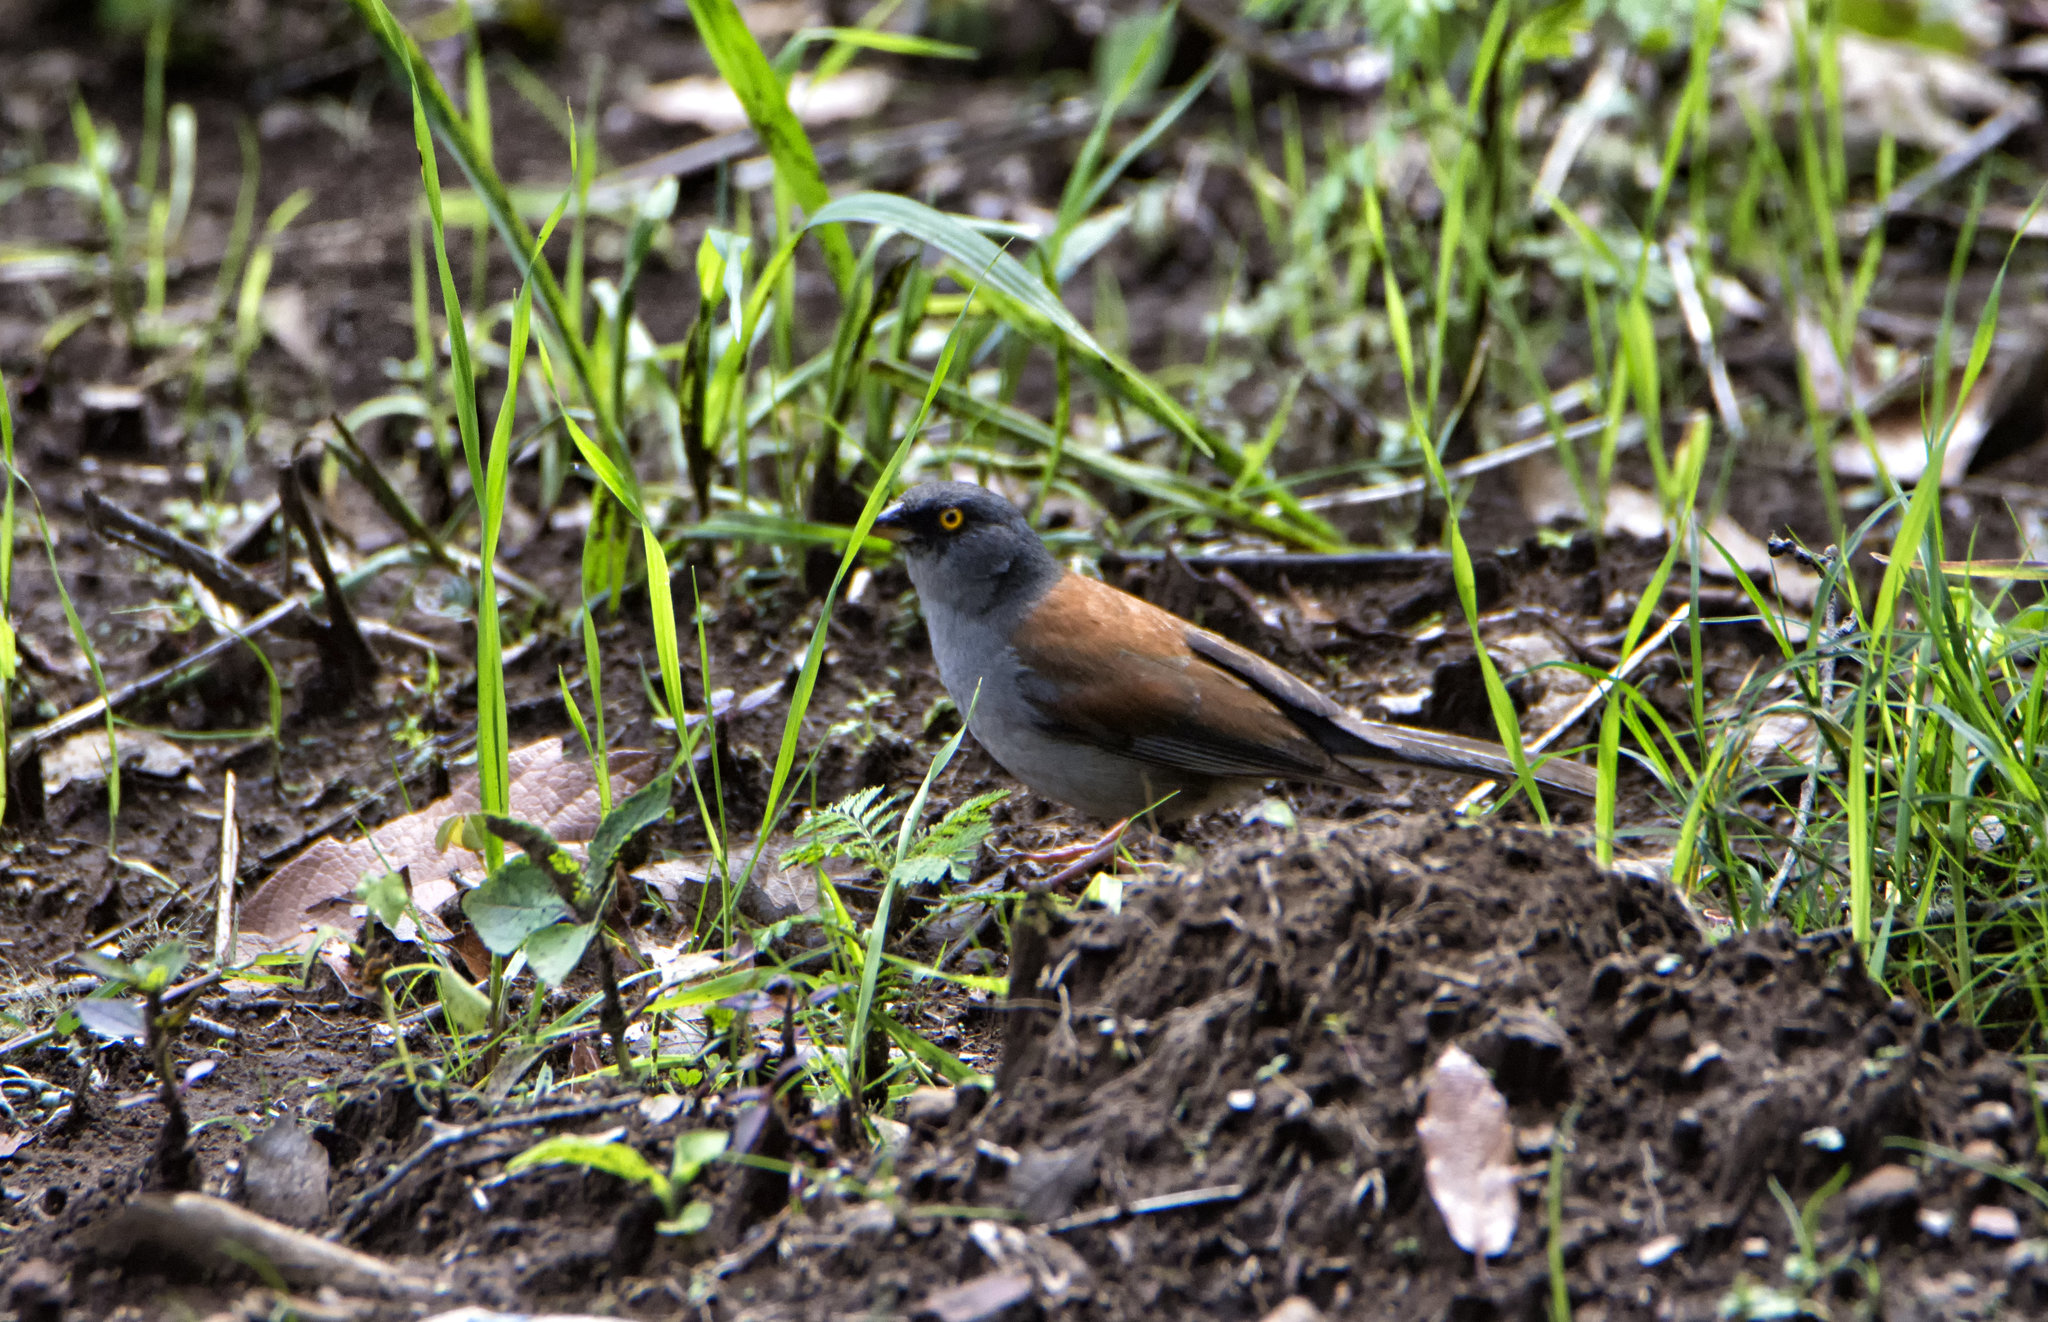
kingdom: Animalia
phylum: Chordata
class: Aves
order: Passeriformes
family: Passerellidae
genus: Junco
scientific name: Junco phaeonotus
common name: Yellow-eyed junco
